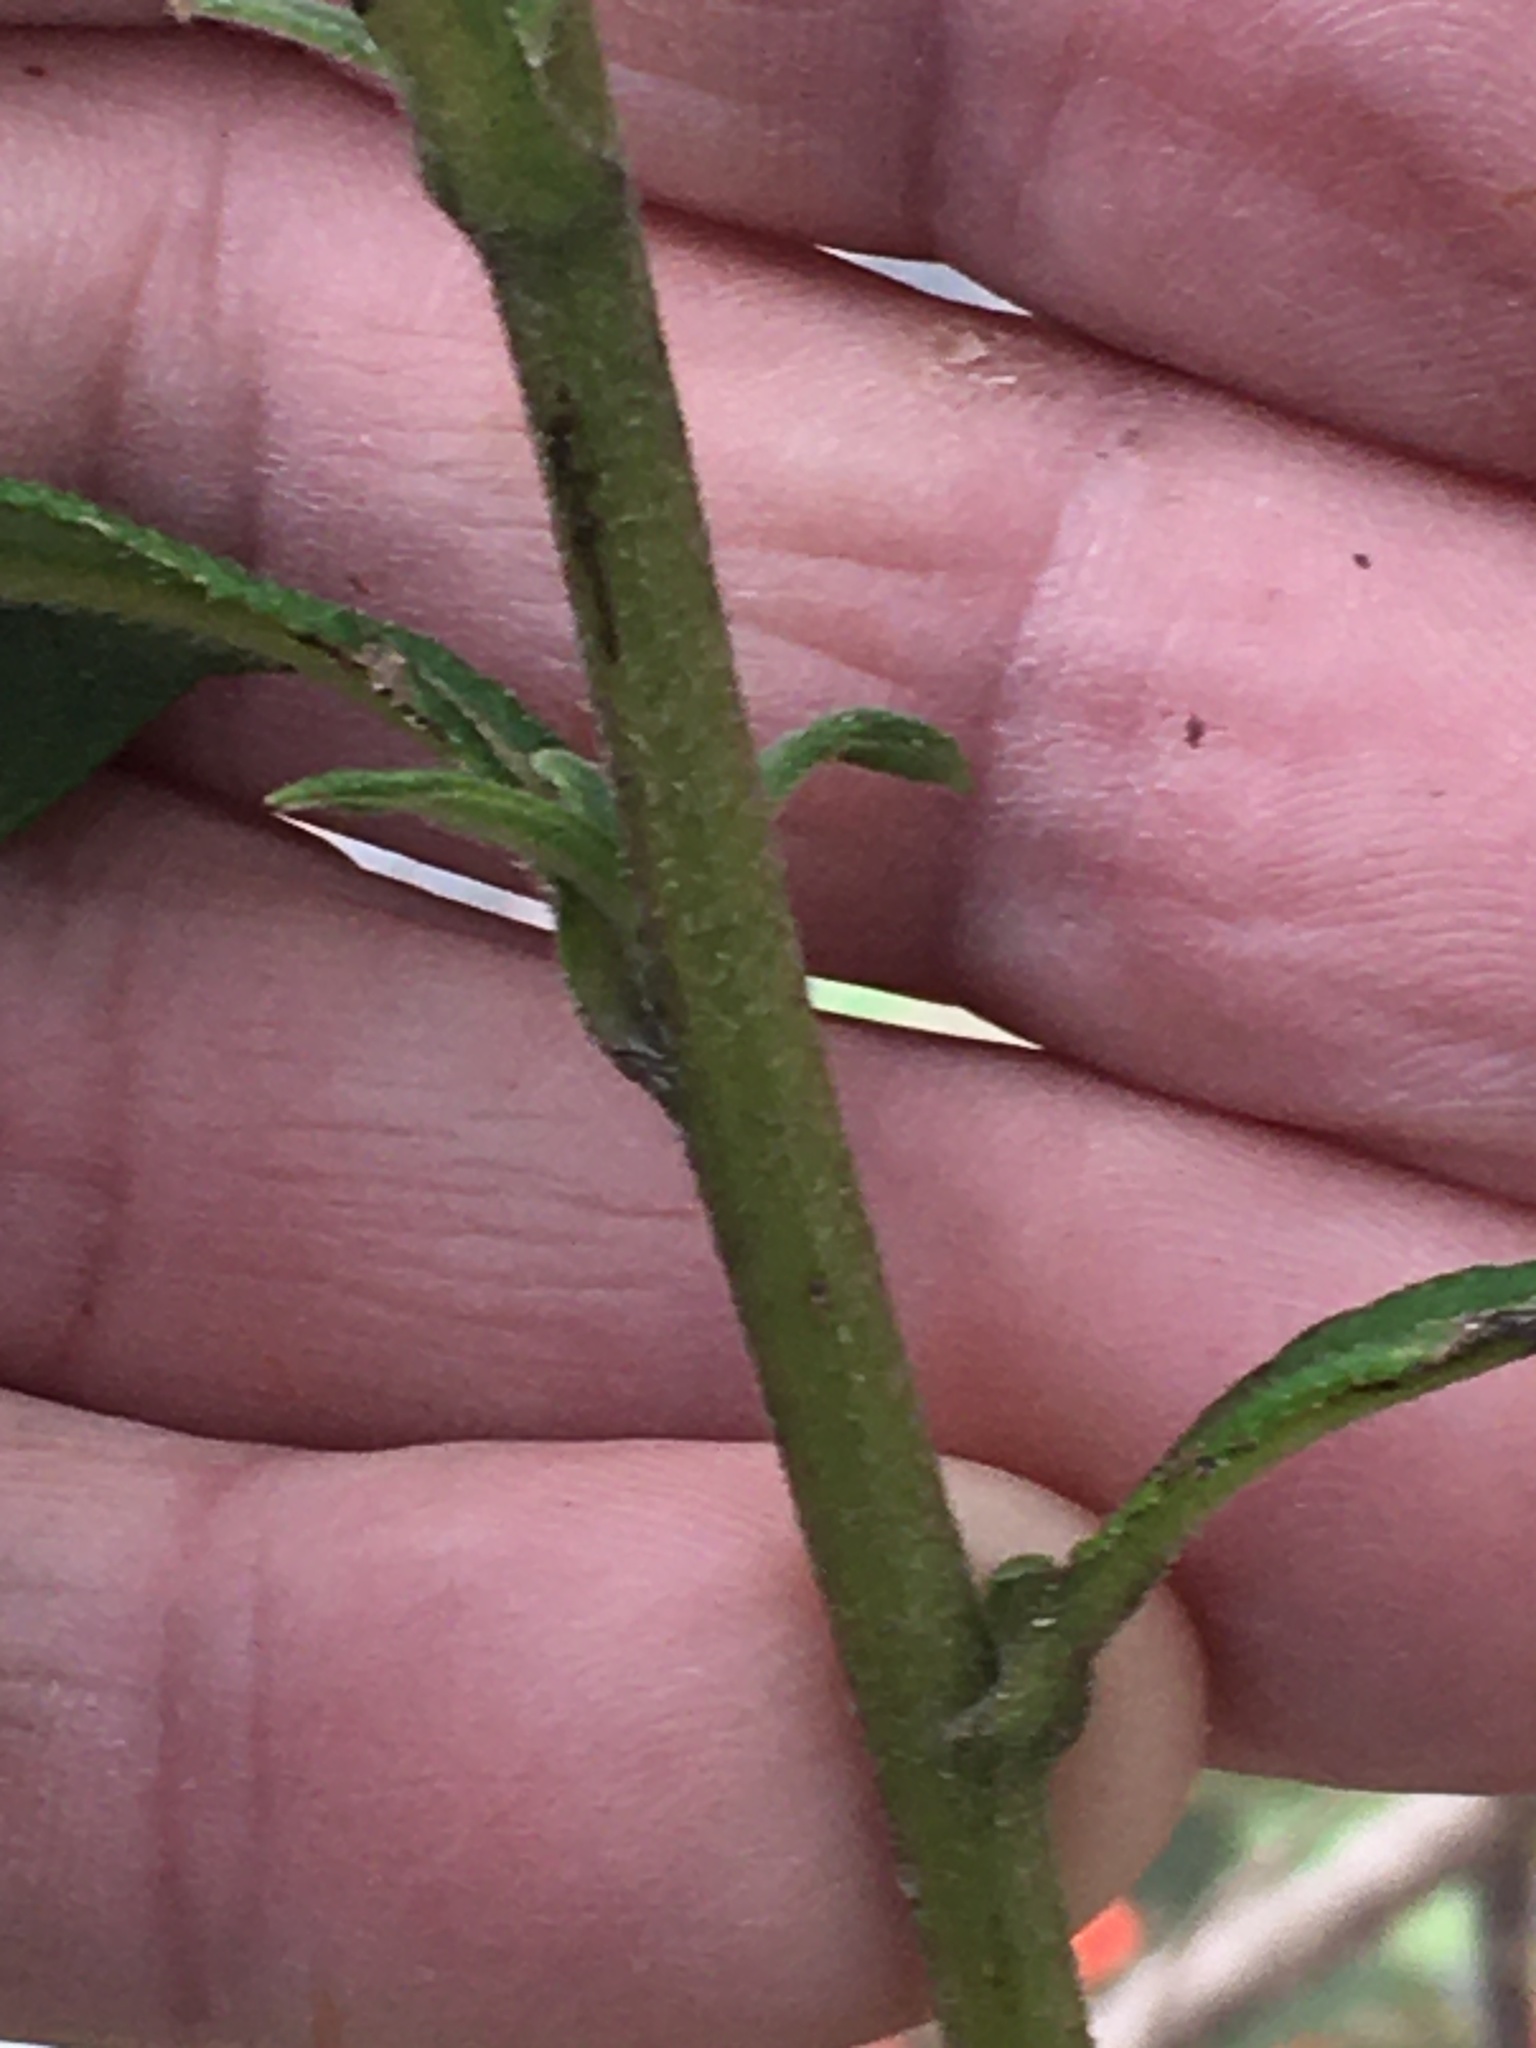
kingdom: Plantae
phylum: Tracheophyta
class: Magnoliopsida
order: Asterales
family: Asteraceae
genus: Helianthus
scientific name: Helianthus schweinitzii
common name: Schweinitz's sunflower
